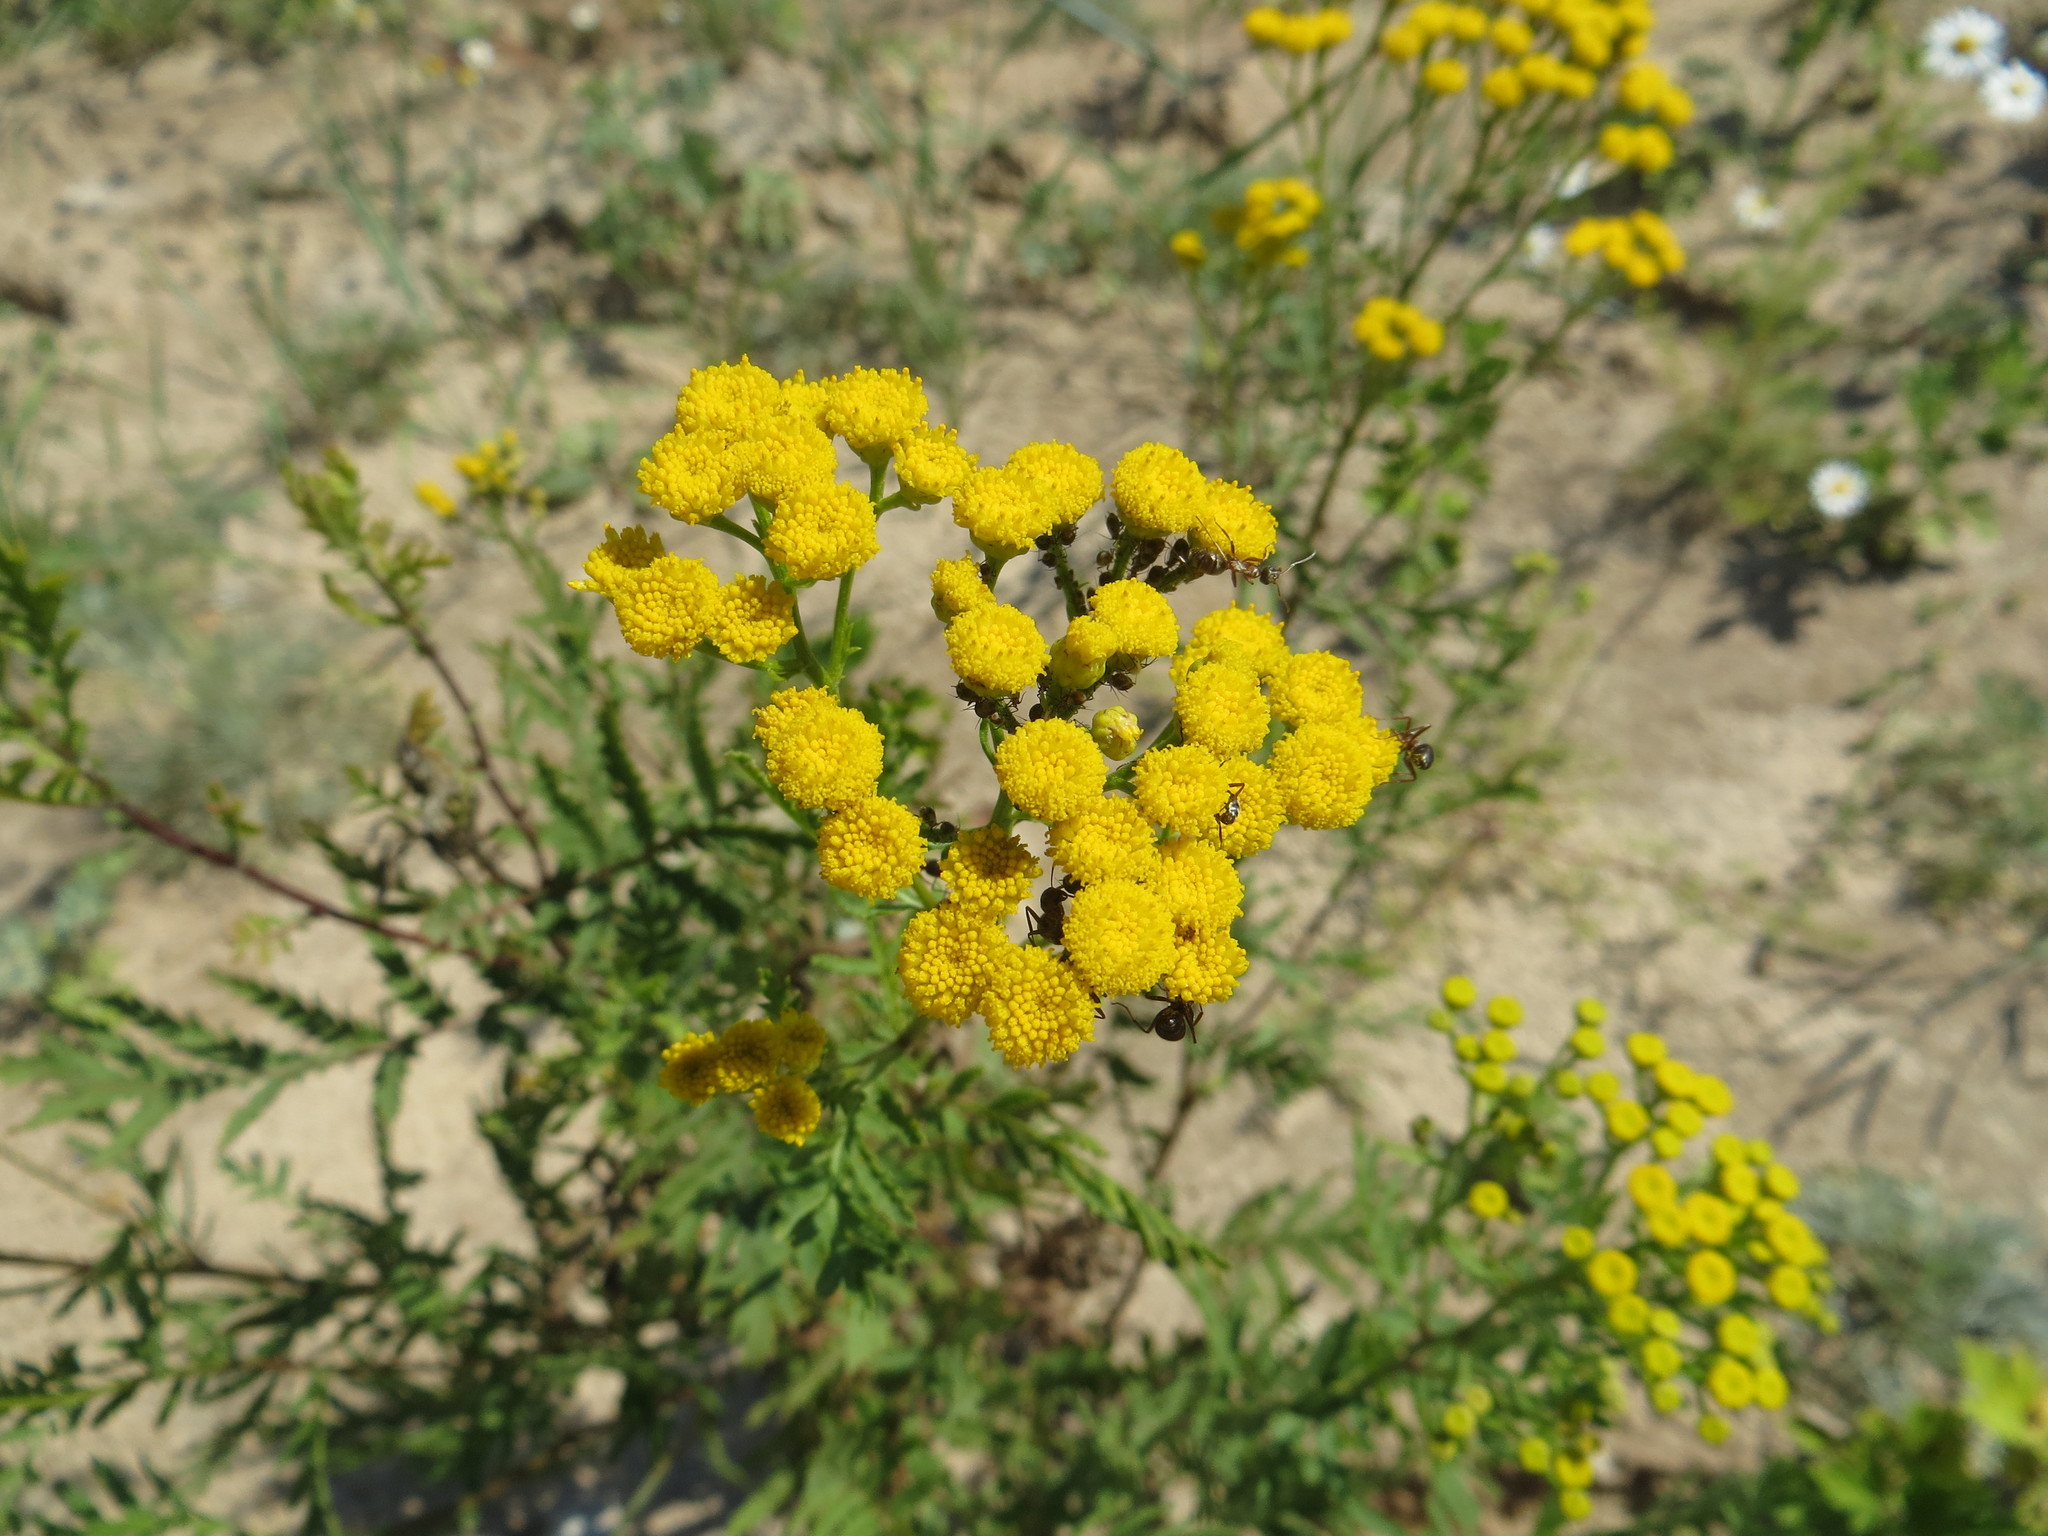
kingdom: Plantae
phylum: Tracheophyta
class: Magnoliopsida
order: Asterales
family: Asteraceae
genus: Tanacetum
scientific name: Tanacetum vulgare
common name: Common tansy
